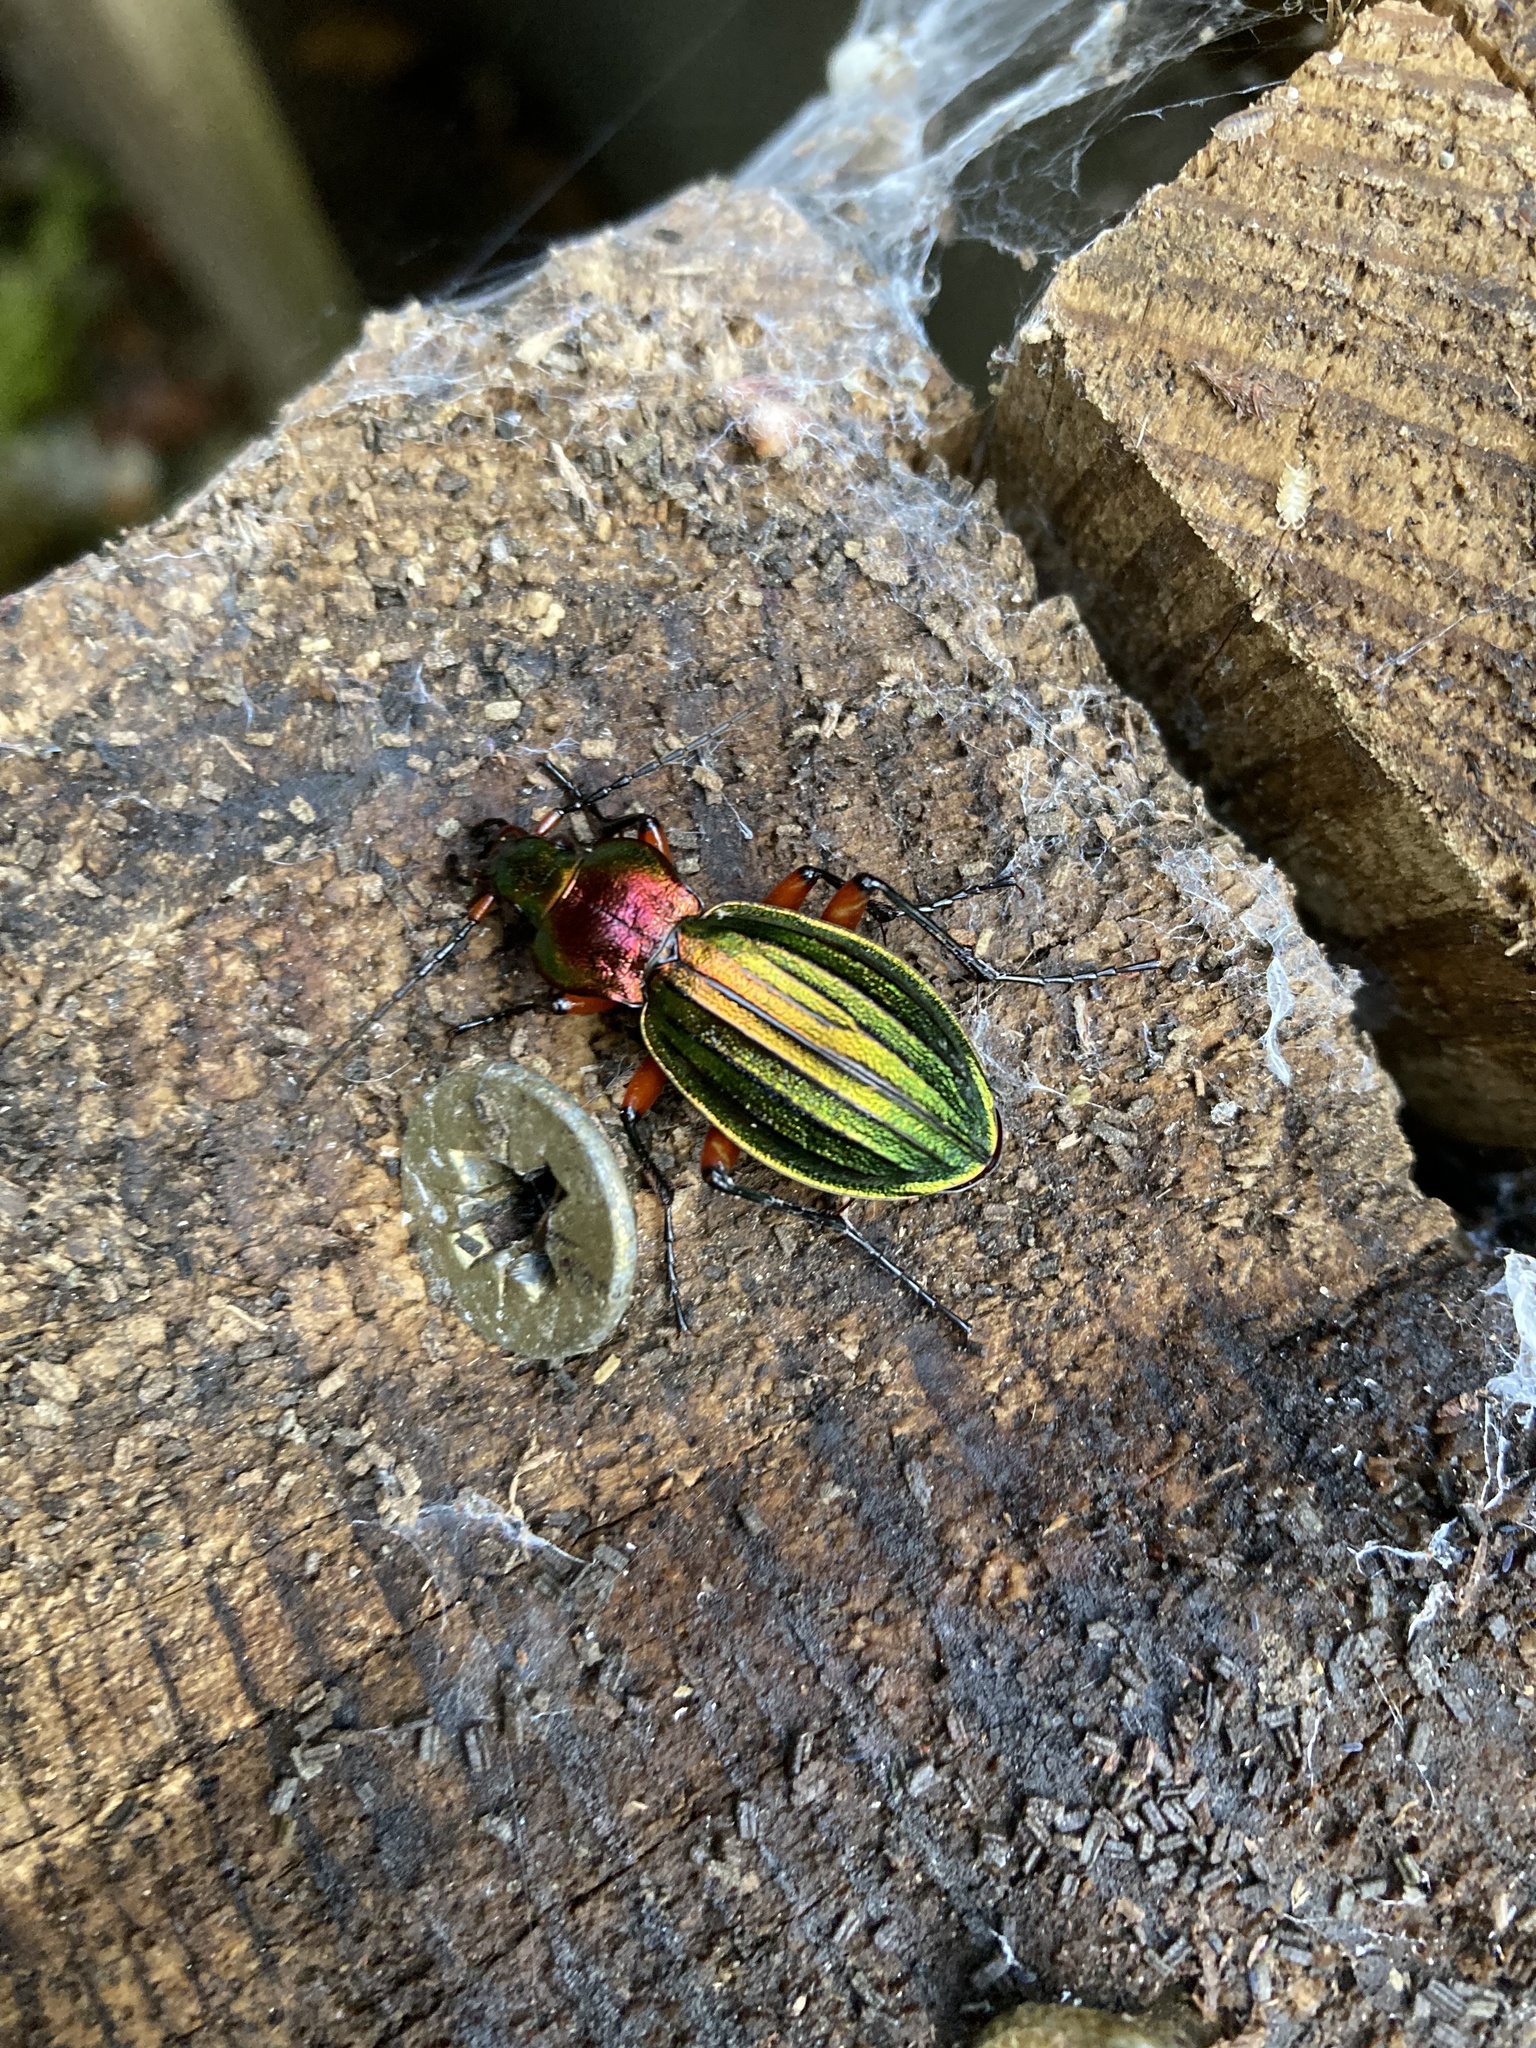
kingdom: Animalia
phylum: Arthropoda
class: Insecta
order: Coleoptera
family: Carabidae
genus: Carabus
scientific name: Carabus auronitens
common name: Carabus auronitens
